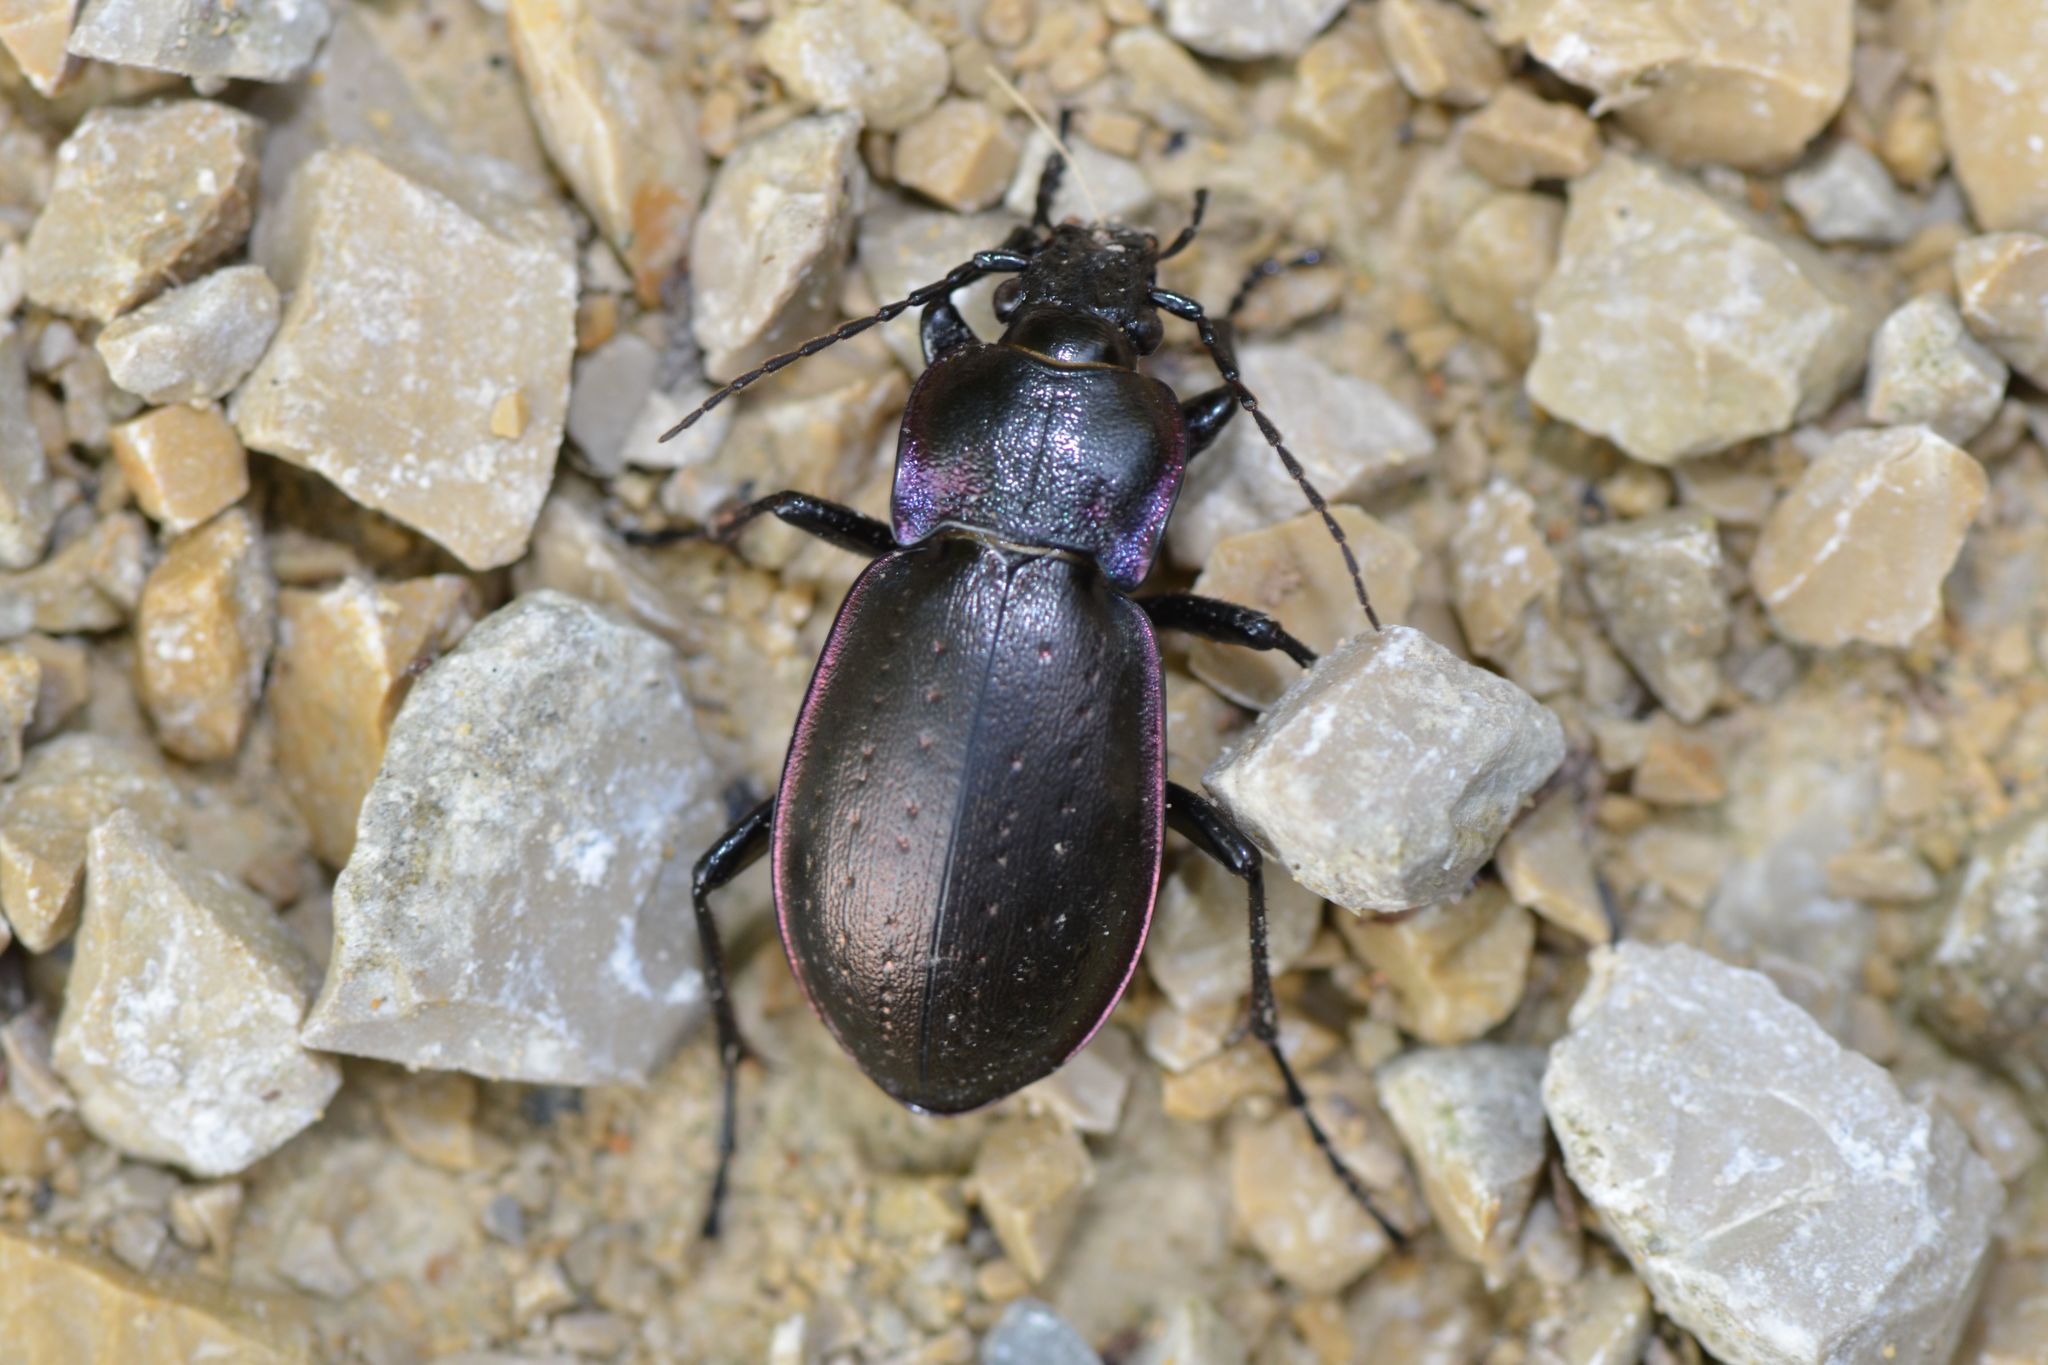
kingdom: Animalia
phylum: Arthropoda
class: Insecta
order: Coleoptera
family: Carabidae
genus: Carabus
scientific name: Carabus nemoralis
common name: European ground beetle
